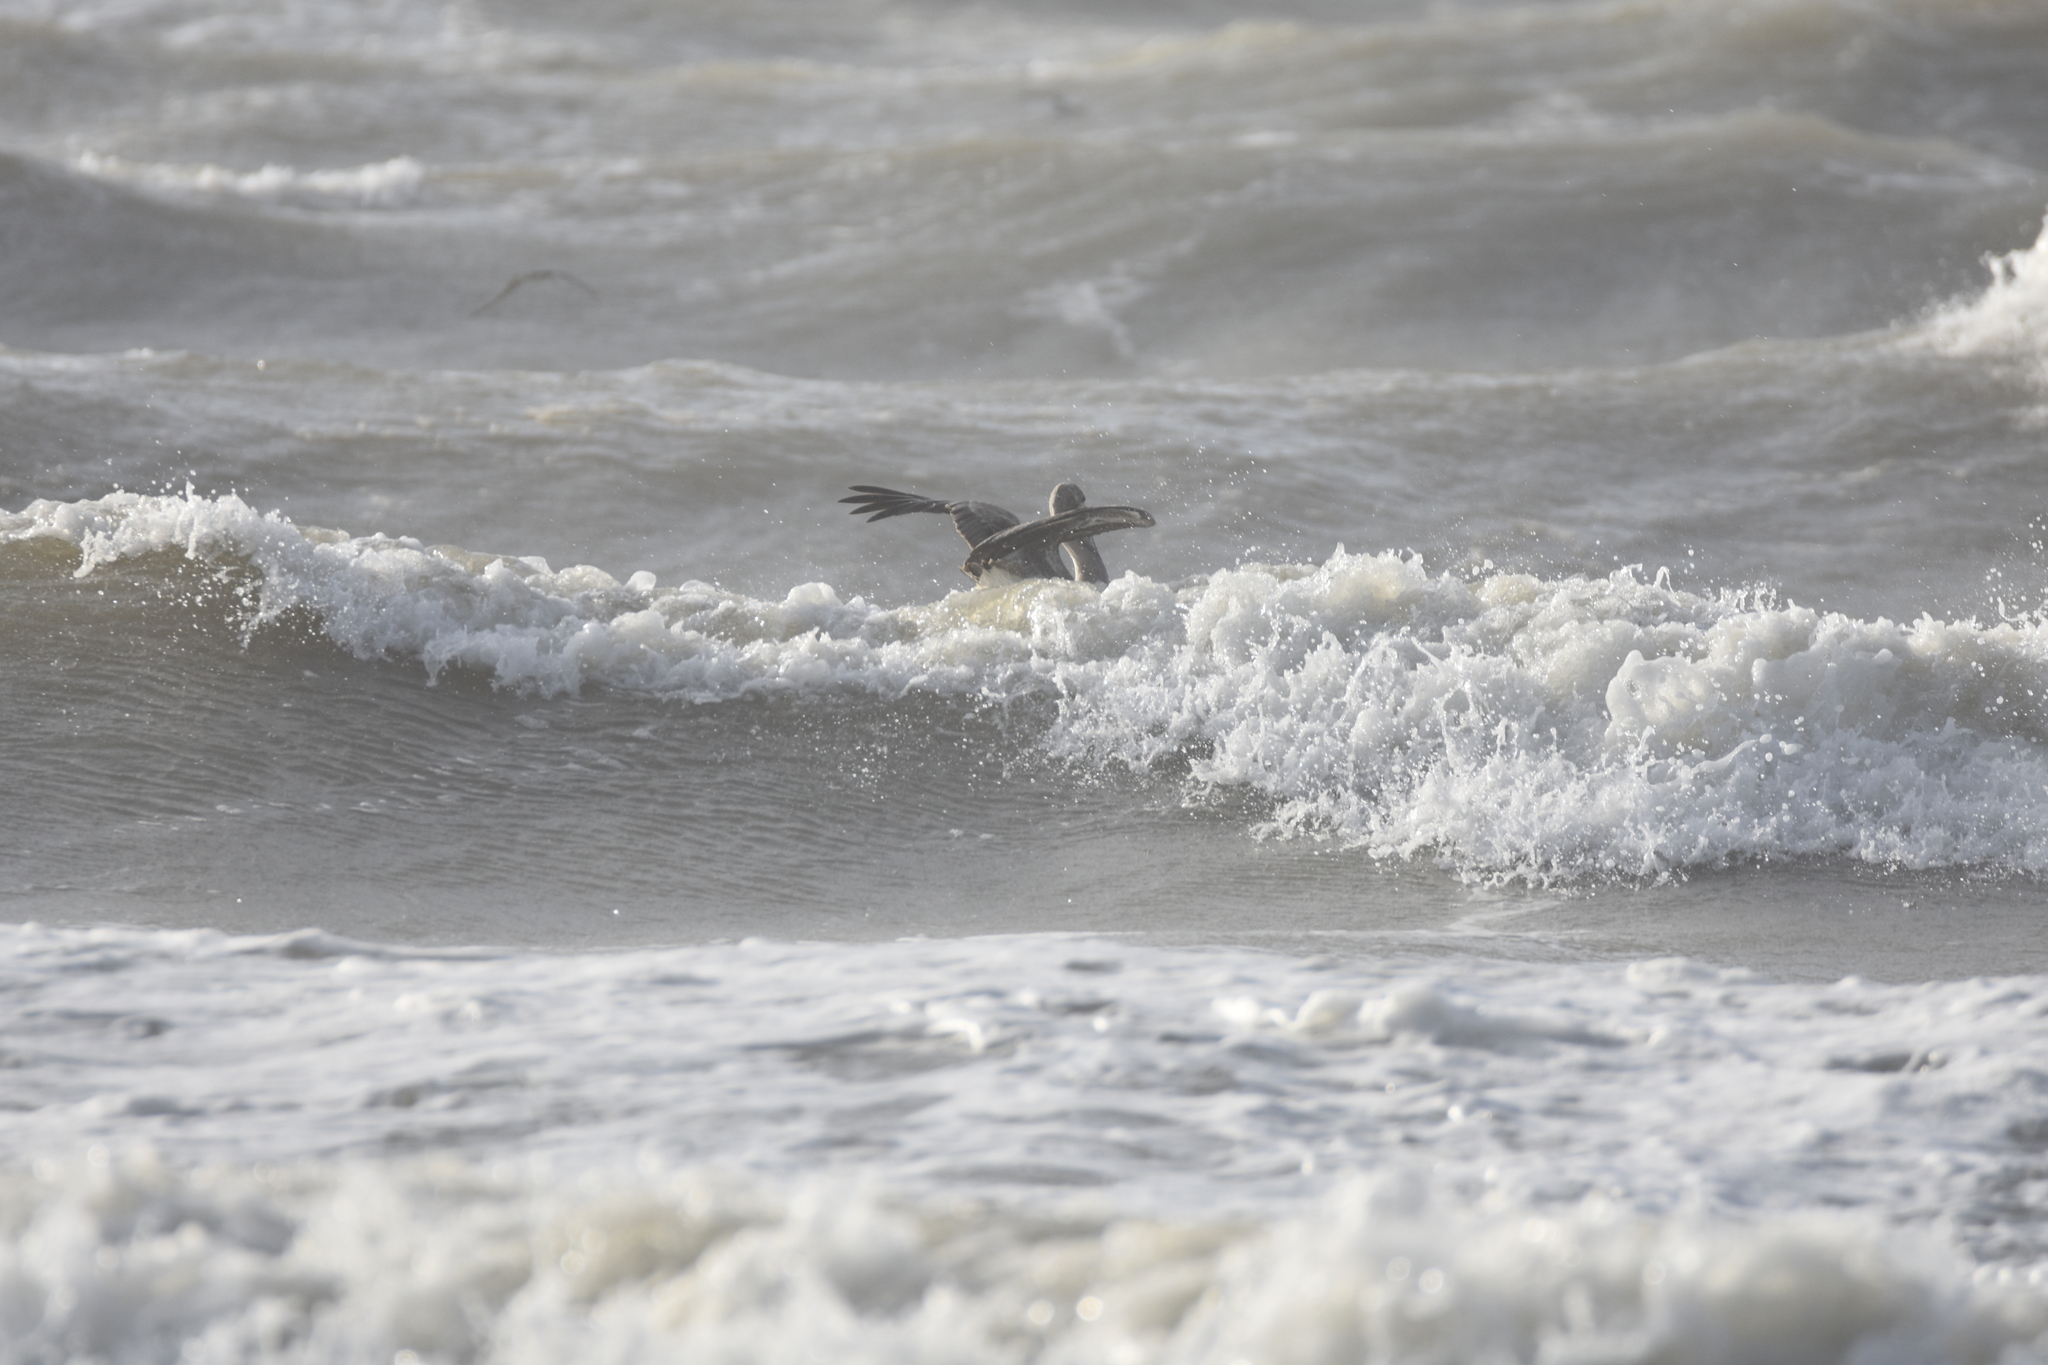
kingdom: Animalia
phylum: Chordata
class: Aves
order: Pelecaniformes
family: Pelecanidae
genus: Pelecanus
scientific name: Pelecanus occidentalis
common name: Brown pelican
